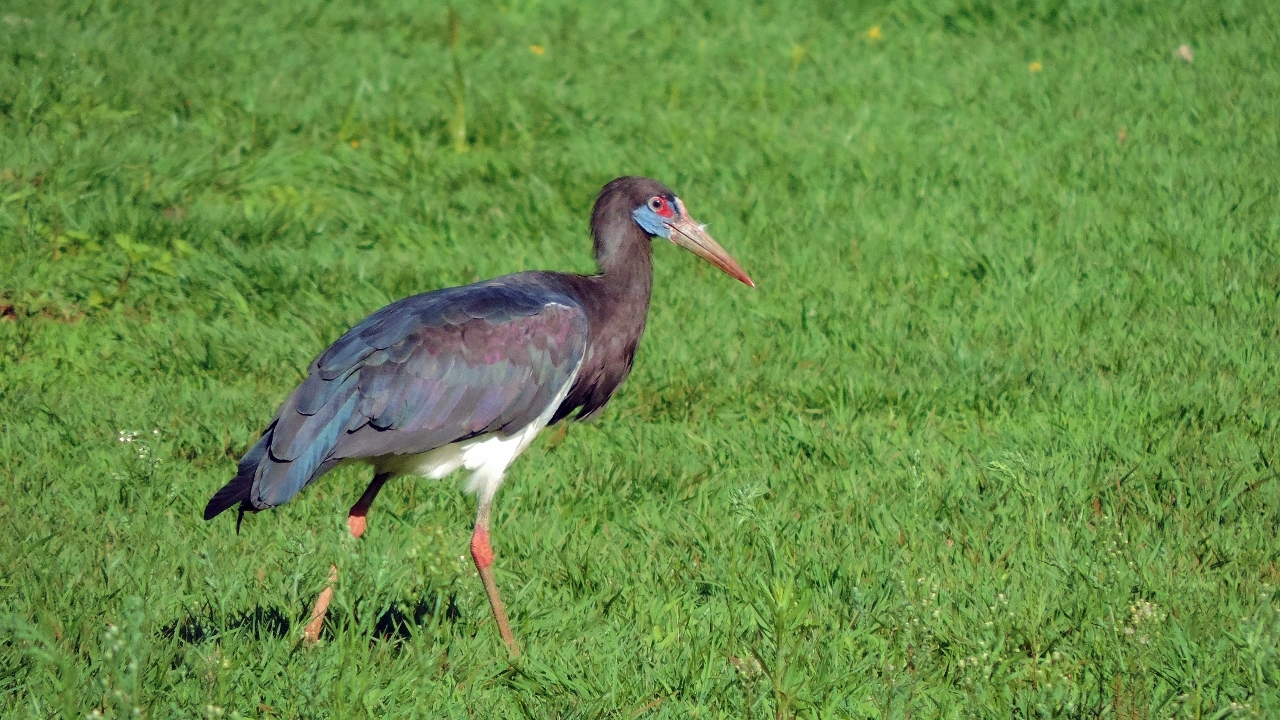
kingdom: Animalia
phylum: Chordata
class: Aves
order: Ciconiiformes
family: Ciconiidae
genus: Ciconia
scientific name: Ciconia abdimii
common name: Abdim's stork
